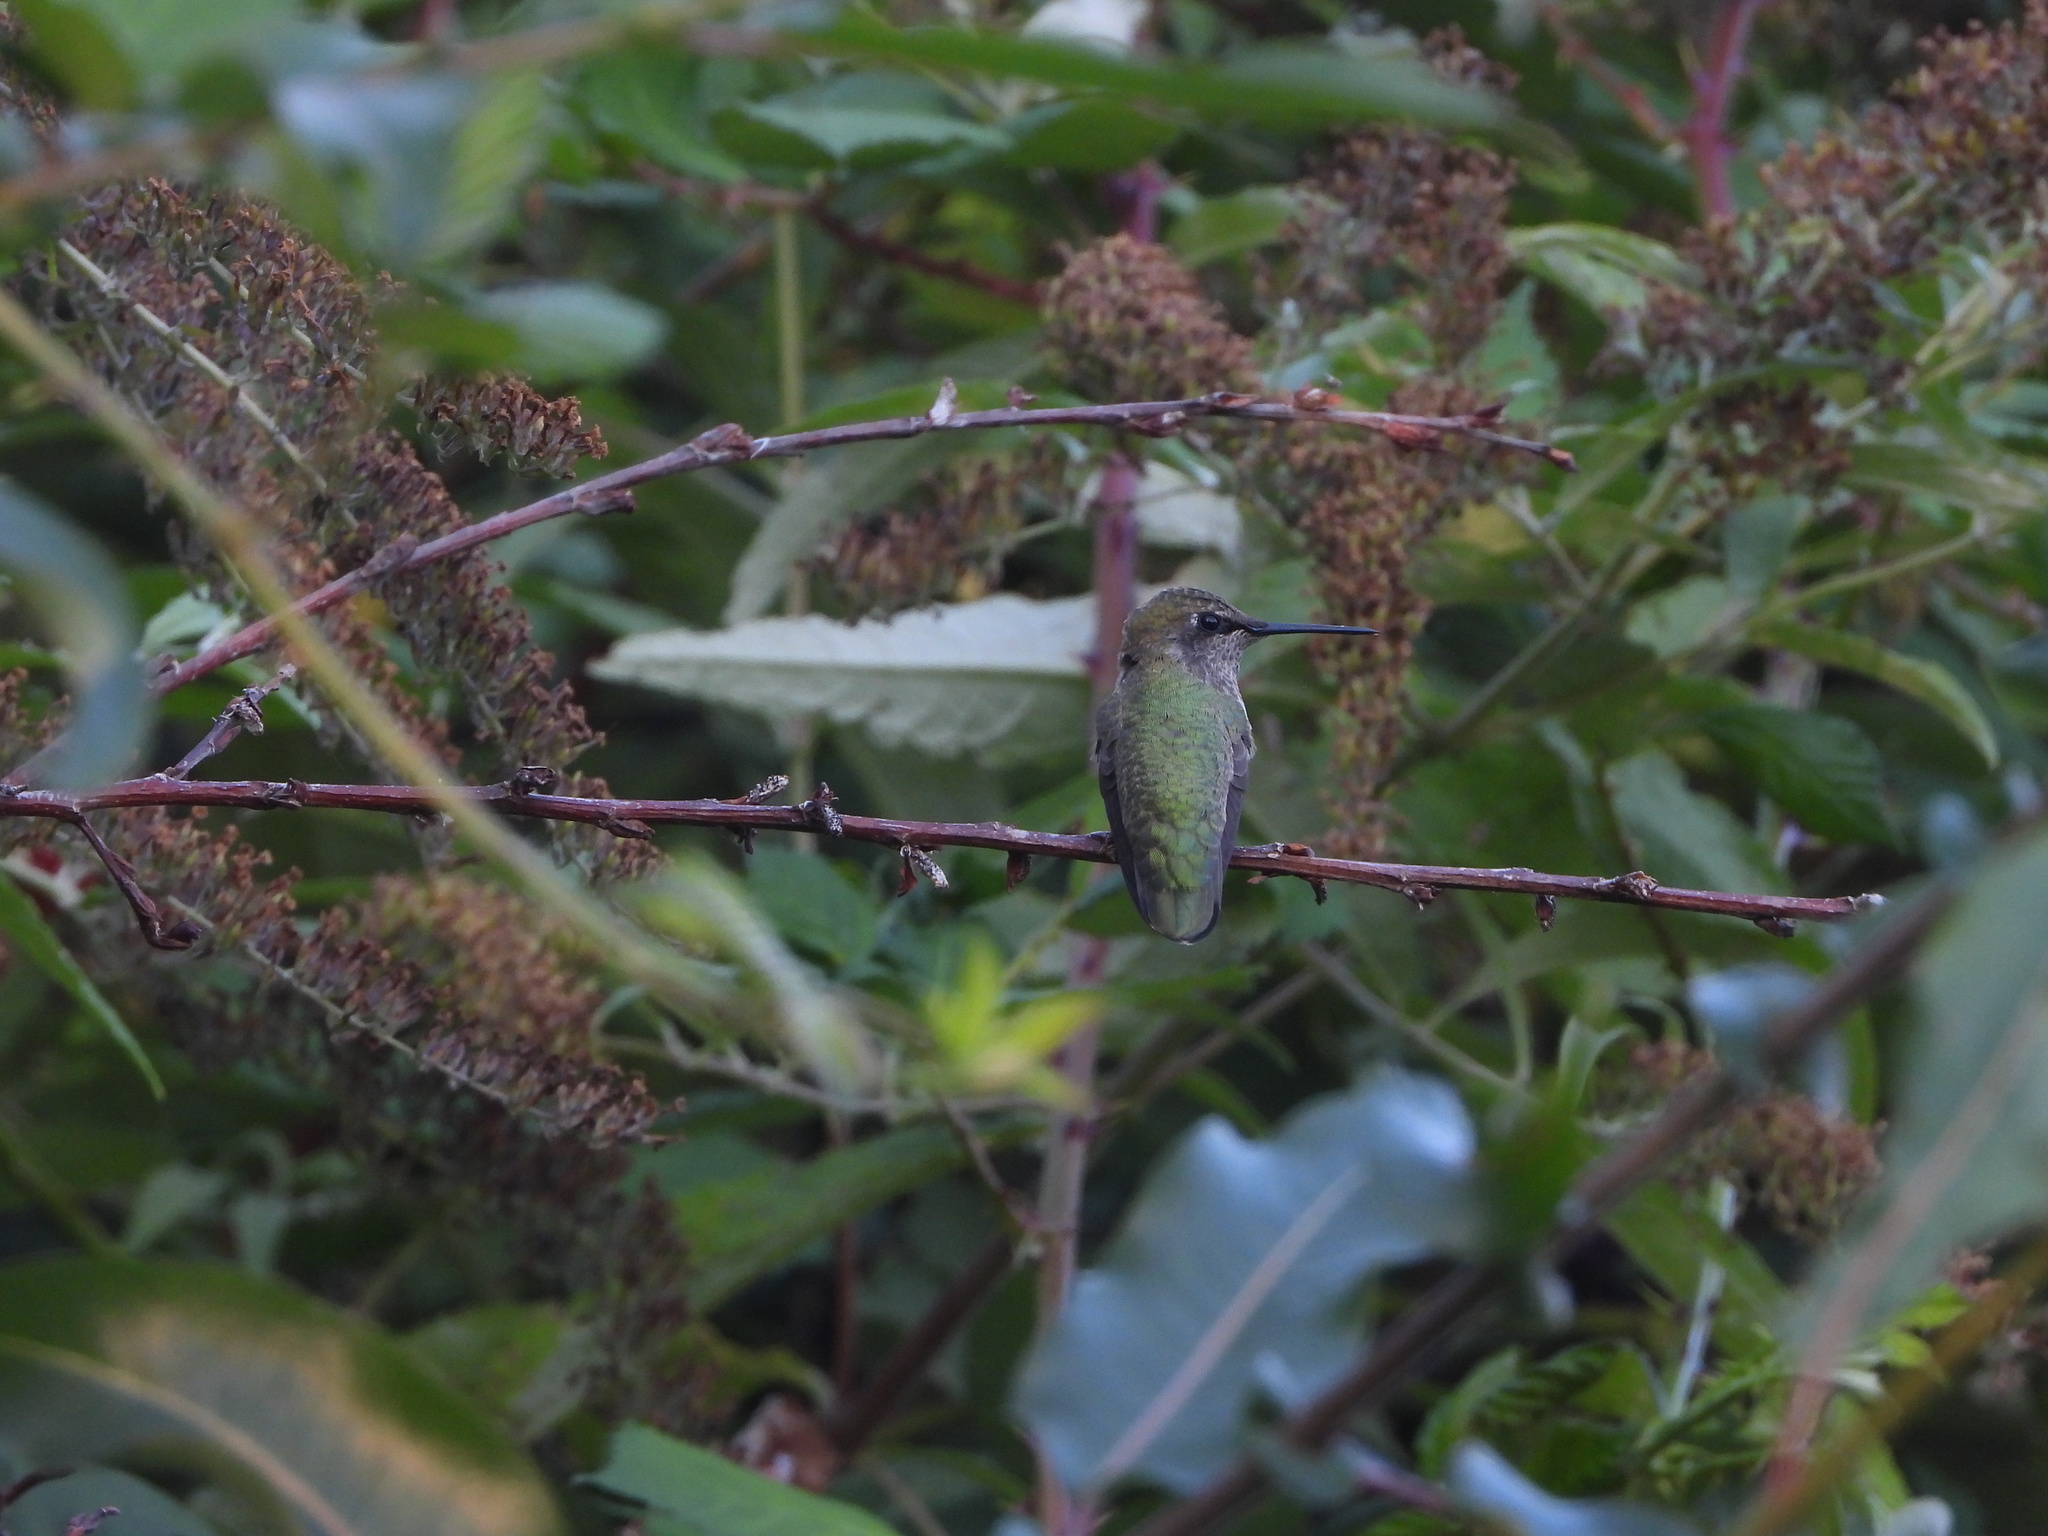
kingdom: Animalia
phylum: Chordata
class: Aves
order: Apodiformes
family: Trochilidae
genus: Calypte
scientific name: Calypte anna
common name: Anna's hummingbird
